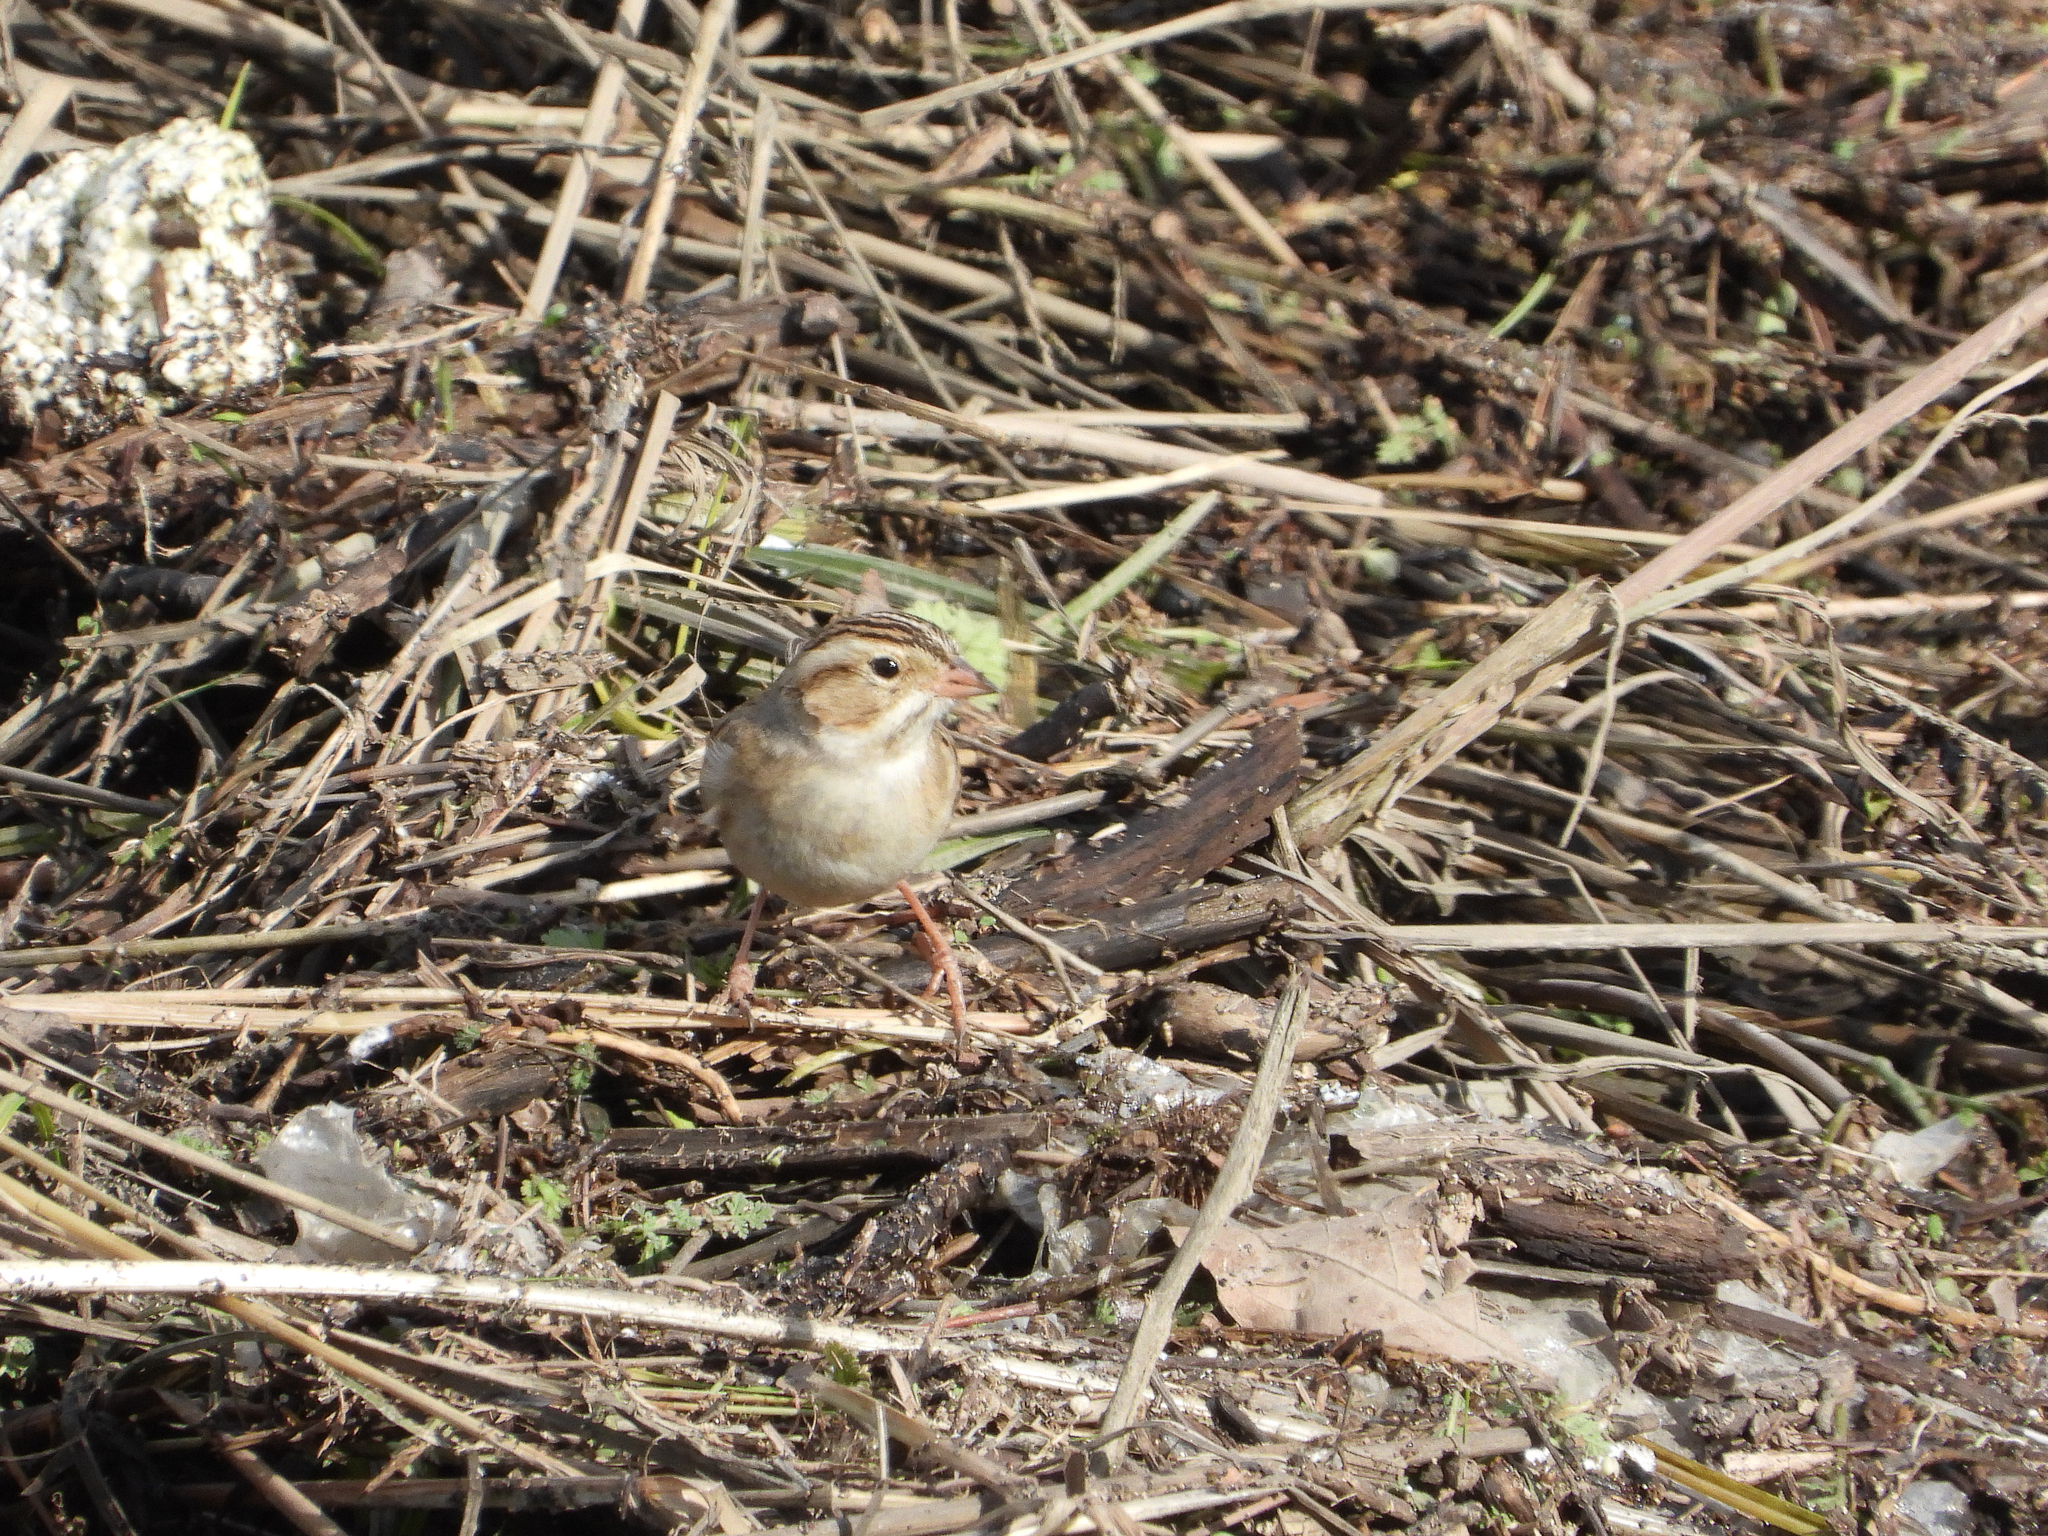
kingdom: Animalia
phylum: Chordata
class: Aves
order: Passeriformes
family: Passerellidae
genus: Spizella
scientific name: Spizella pallida
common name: Clay-colored sparrow
